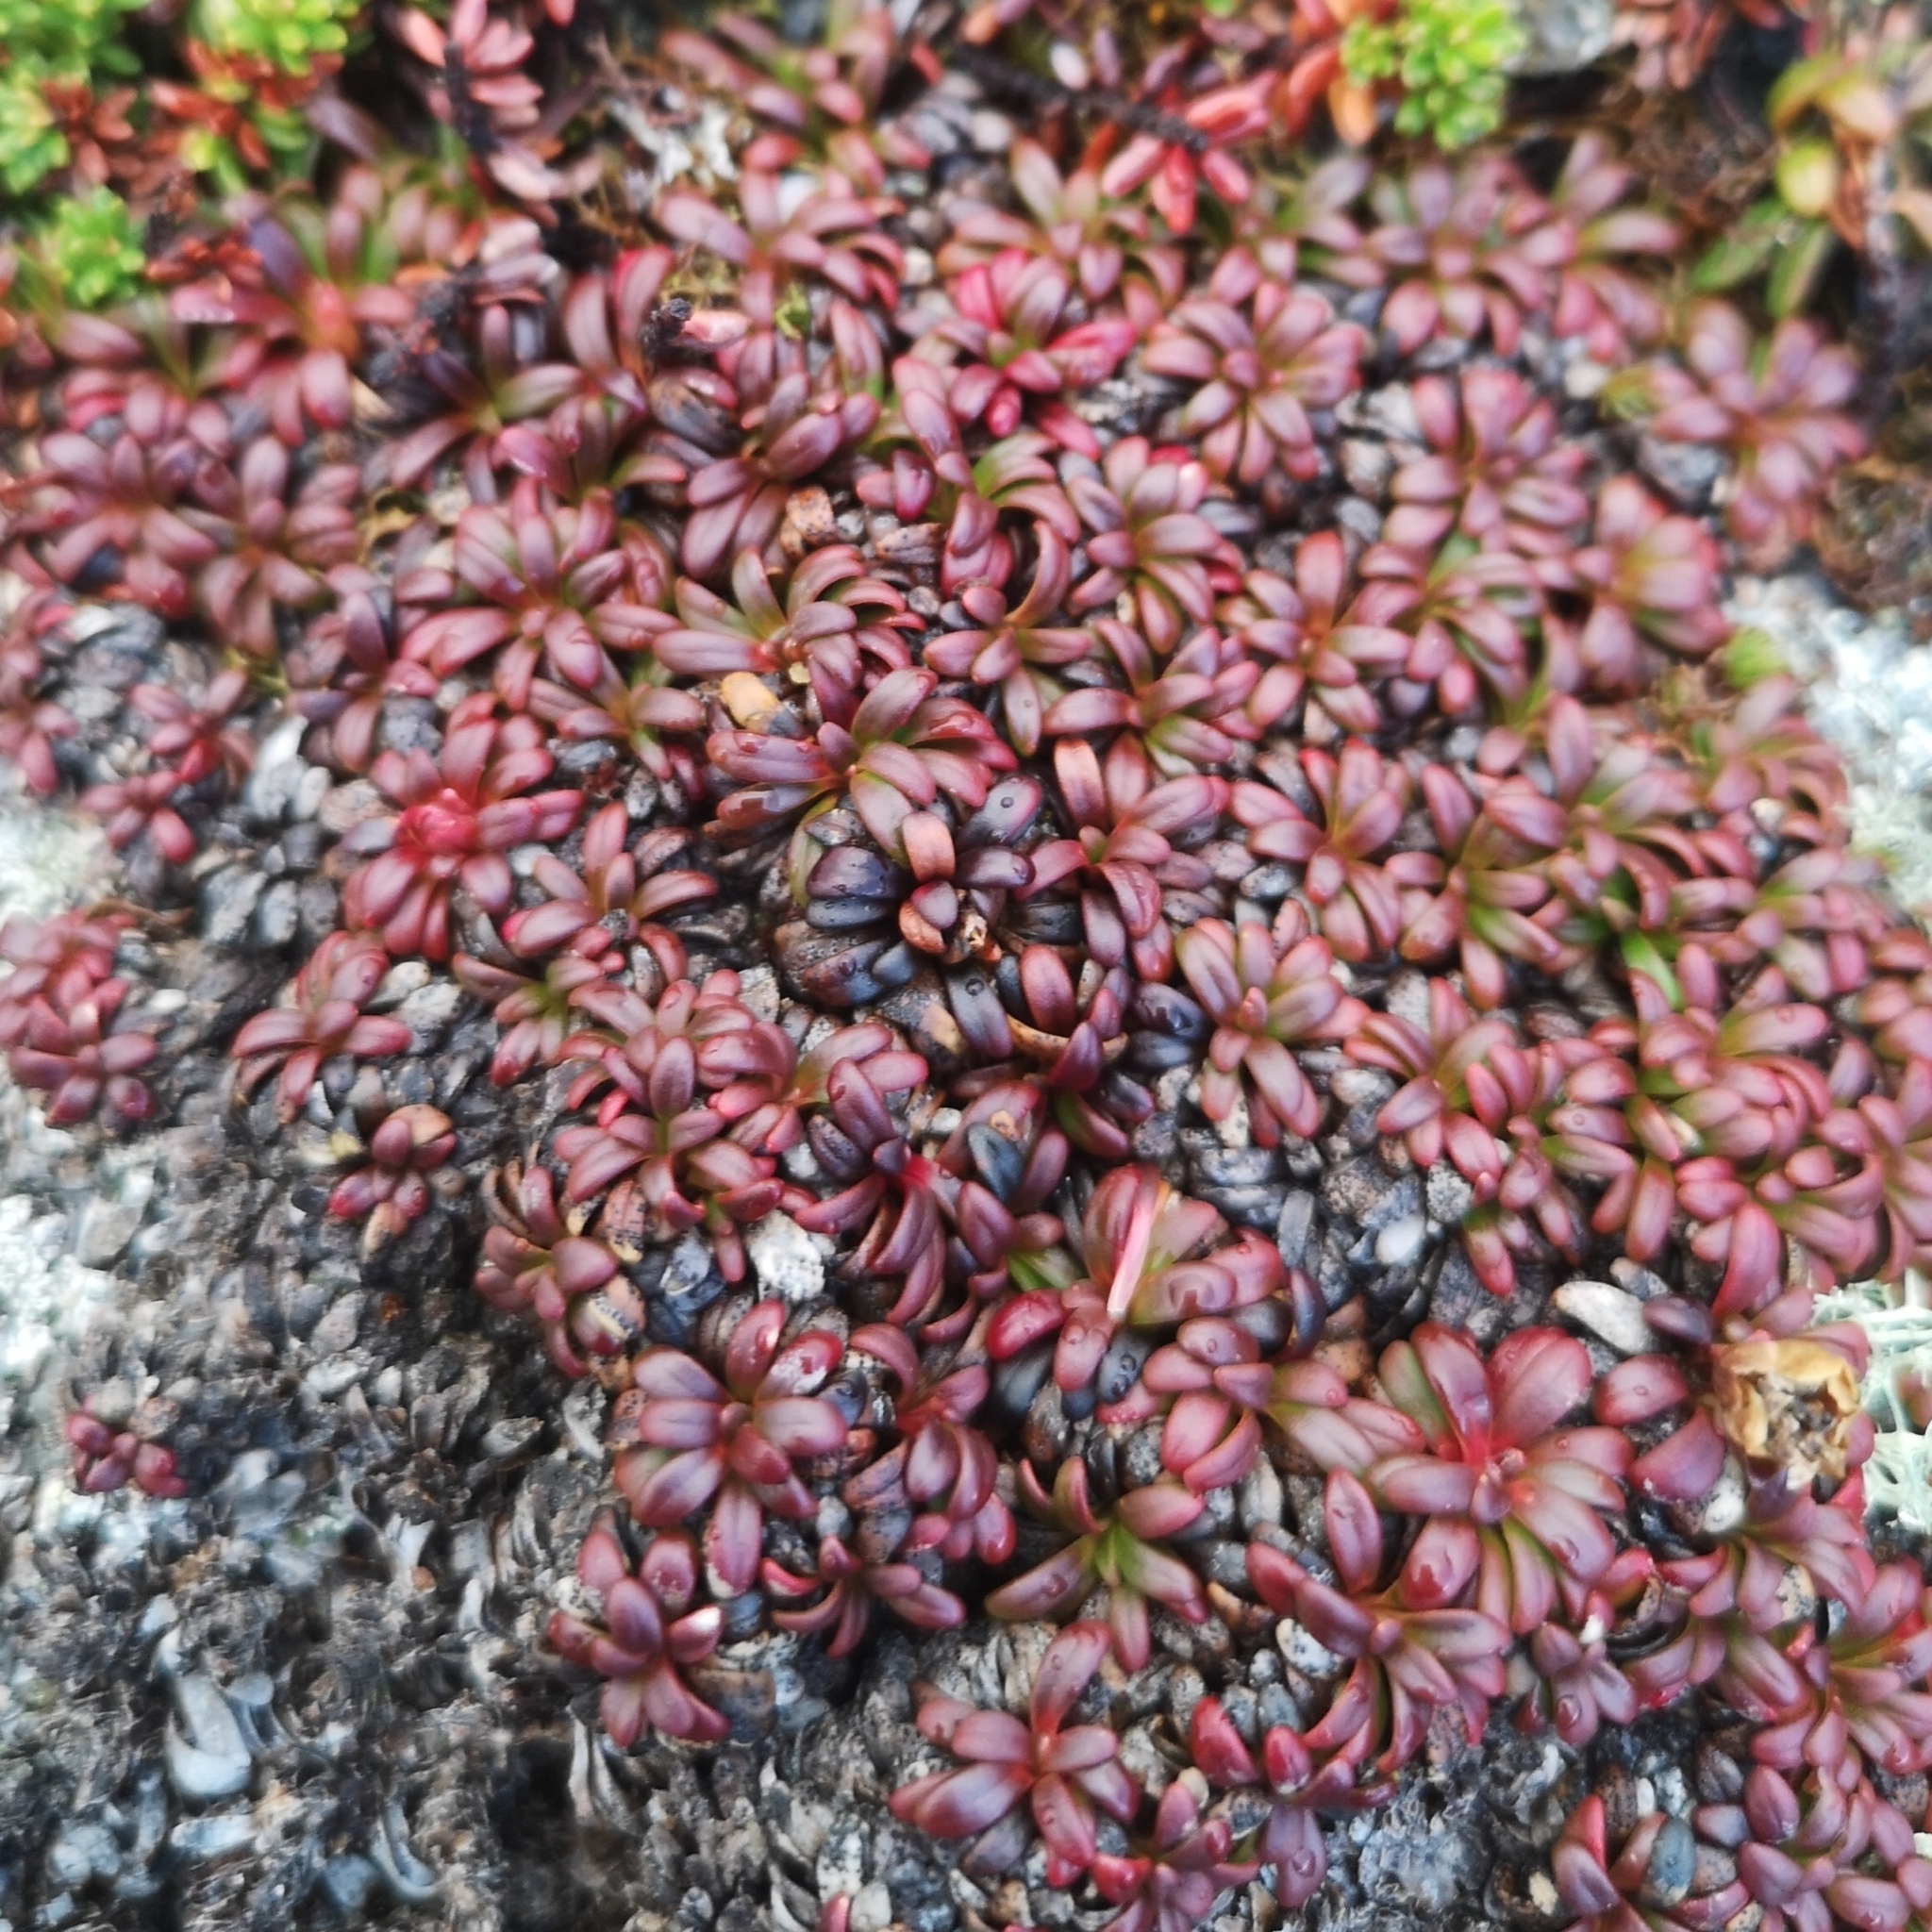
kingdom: Plantae
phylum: Tracheophyta
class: Magnoliopsida
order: Ericales
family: Diapensiaceae
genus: Diapensia
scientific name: Diapensia lapponica
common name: Diapensia
